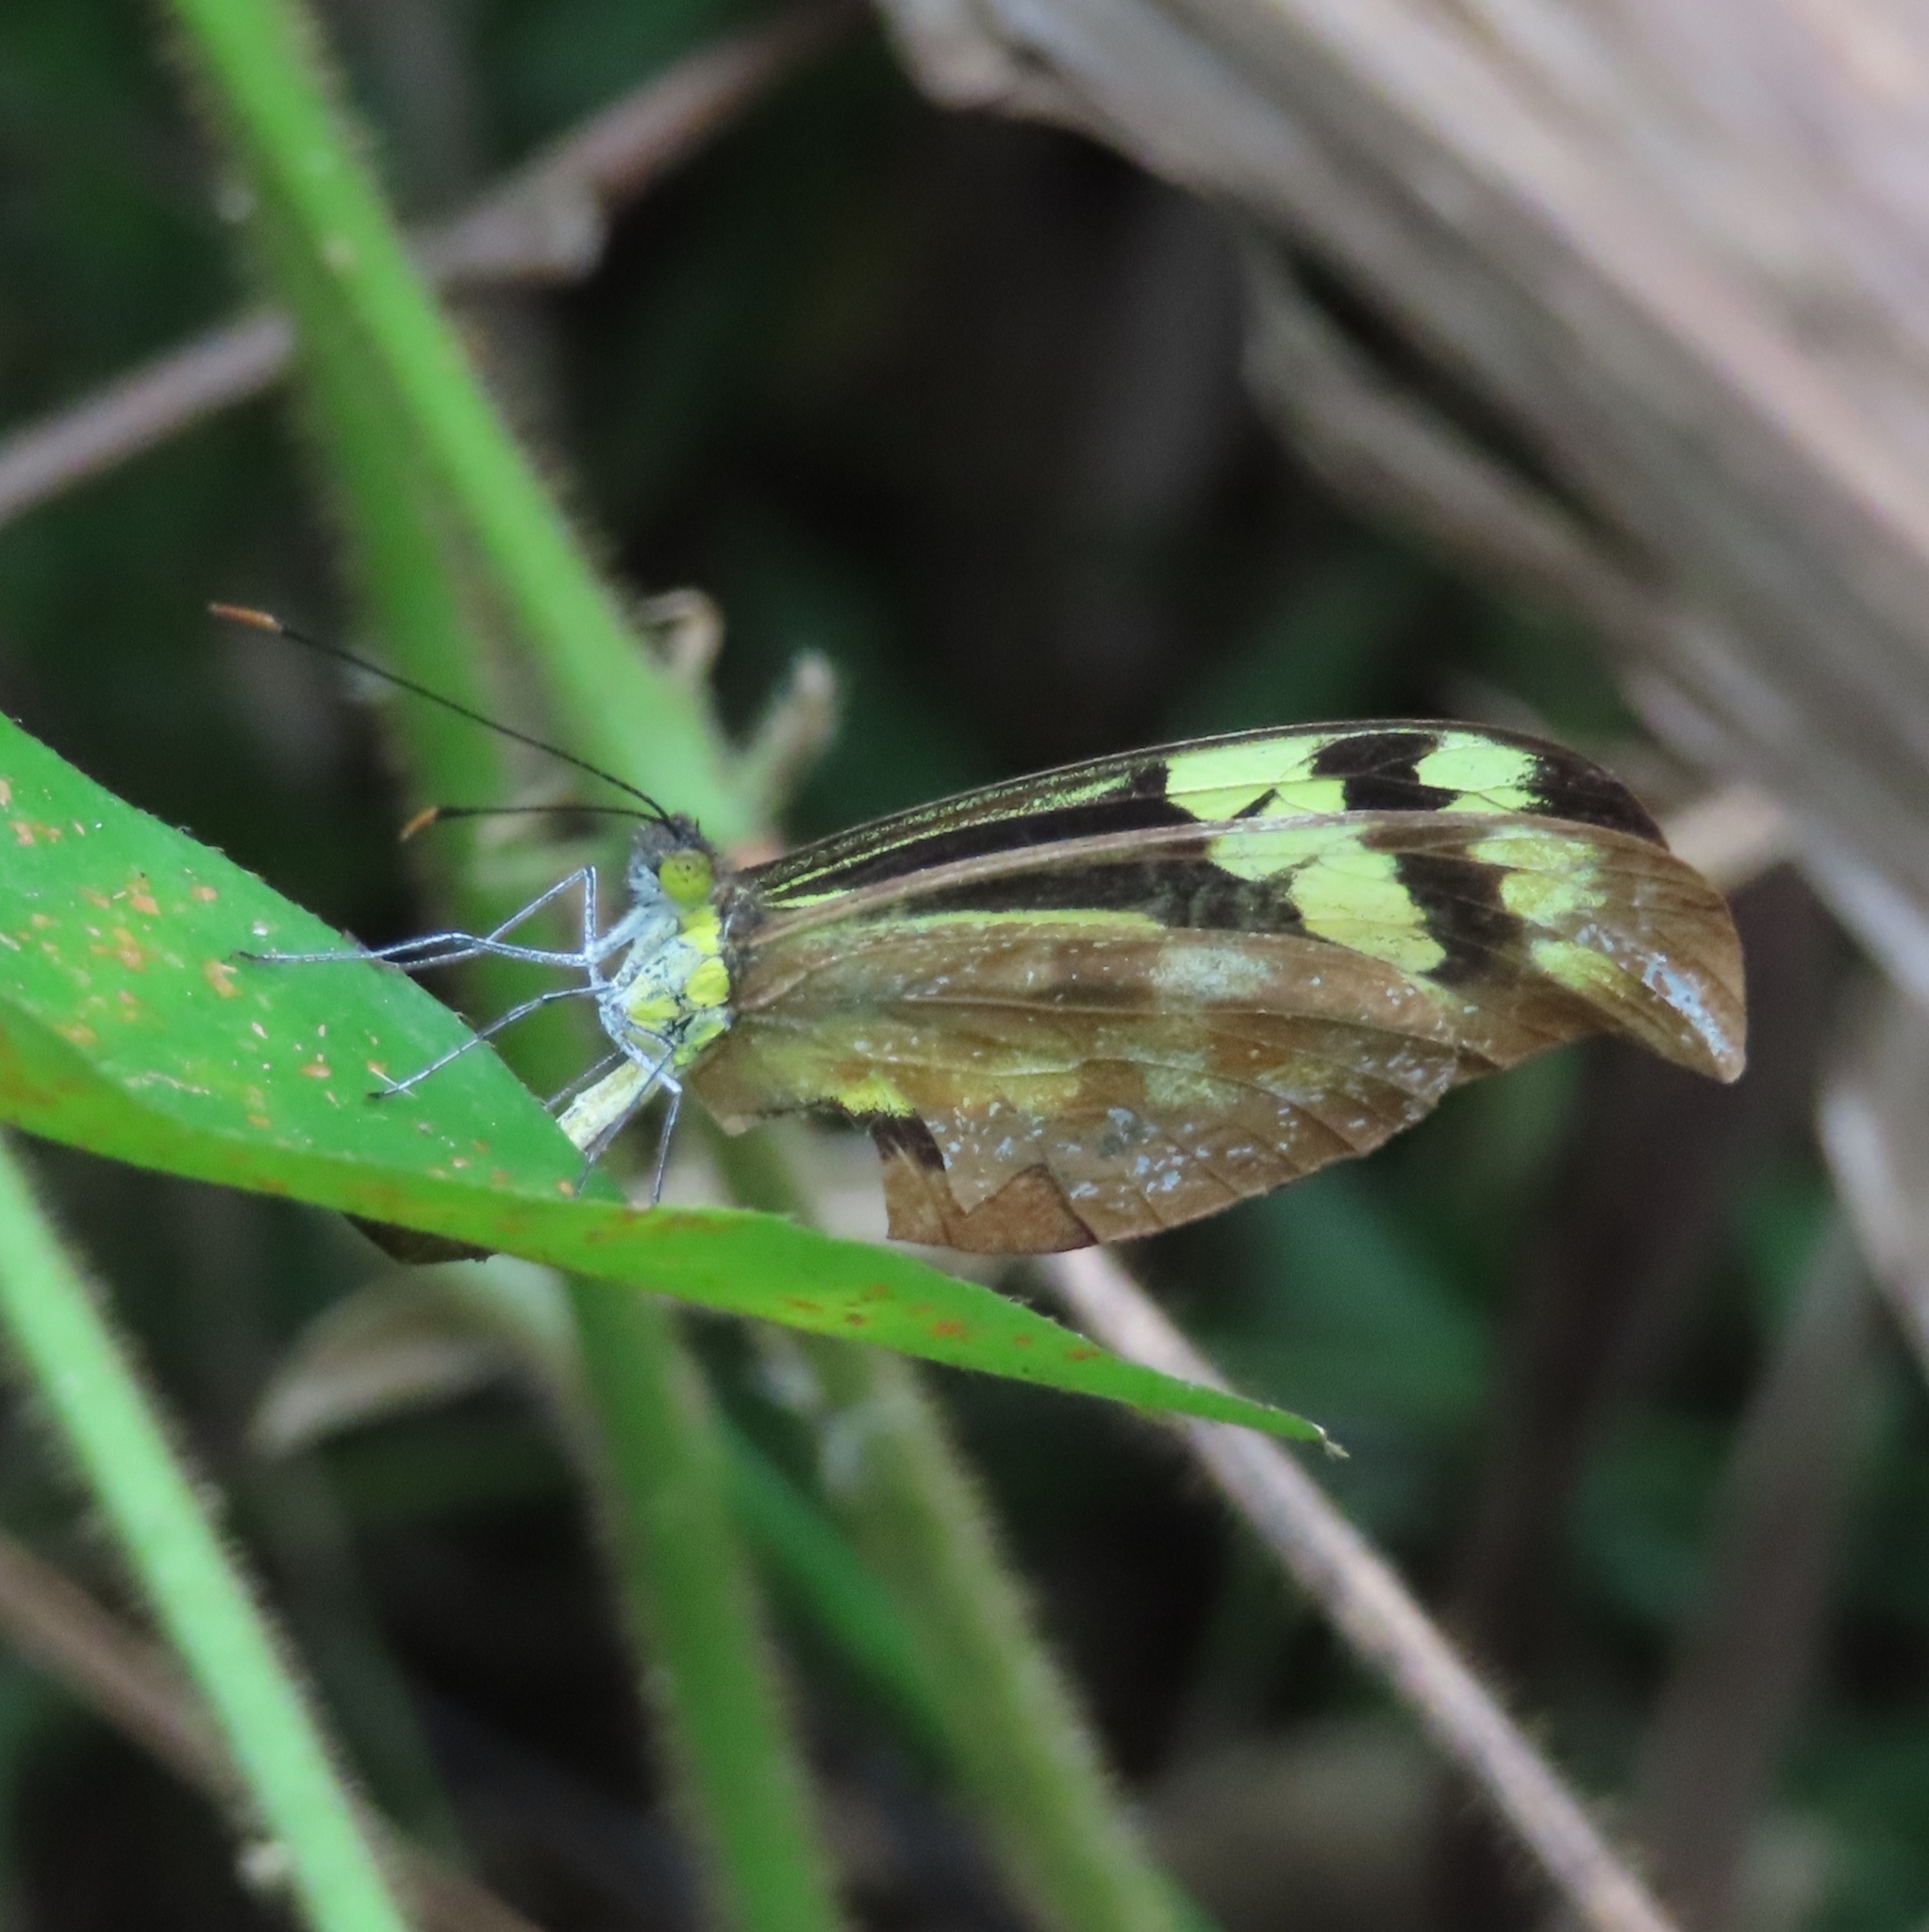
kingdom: Animalia
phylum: Arthropoda
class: Insecta
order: Lepidoptera
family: Pieridae
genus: Dismorphia
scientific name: Dismorphia spio
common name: Haitian mimic
